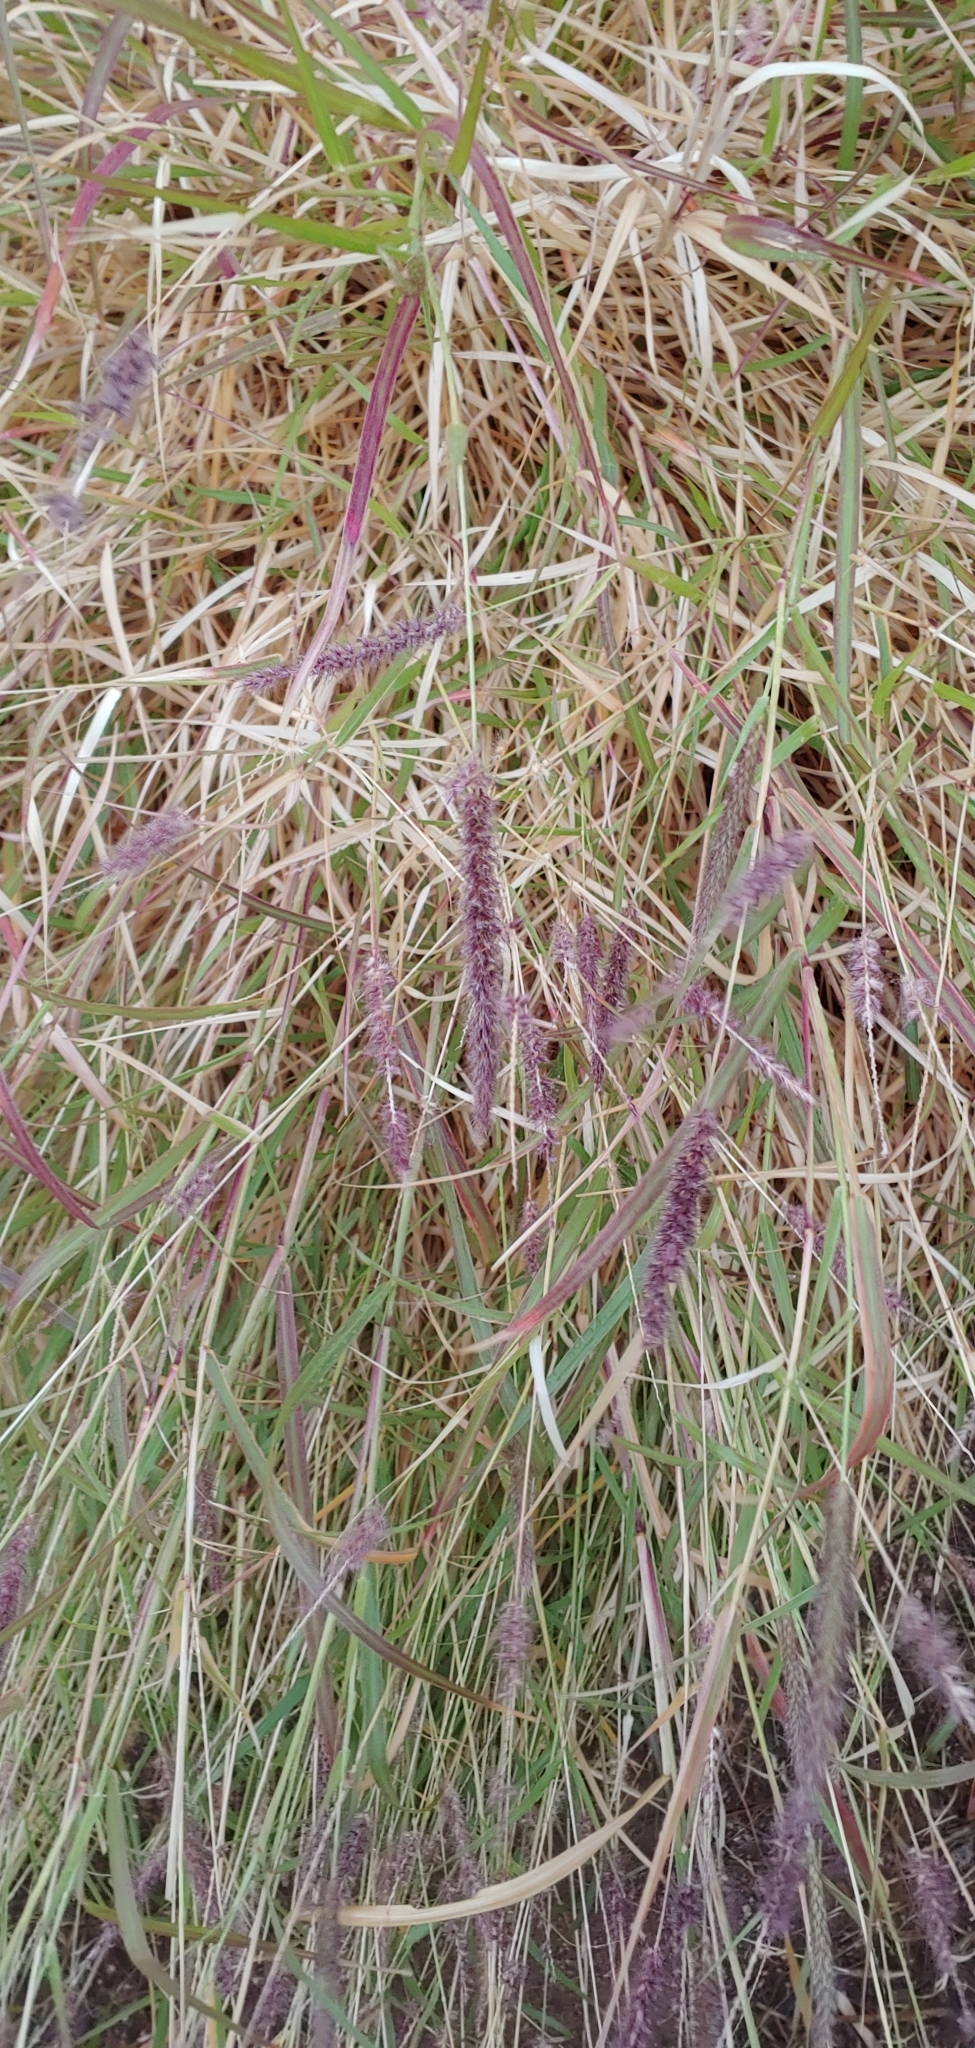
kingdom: Plantae
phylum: Tracheophyta
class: Liliopsida
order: Poales
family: Poaceae
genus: Cenchrus
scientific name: Cenchrus ciliaris
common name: Buffelgrass
